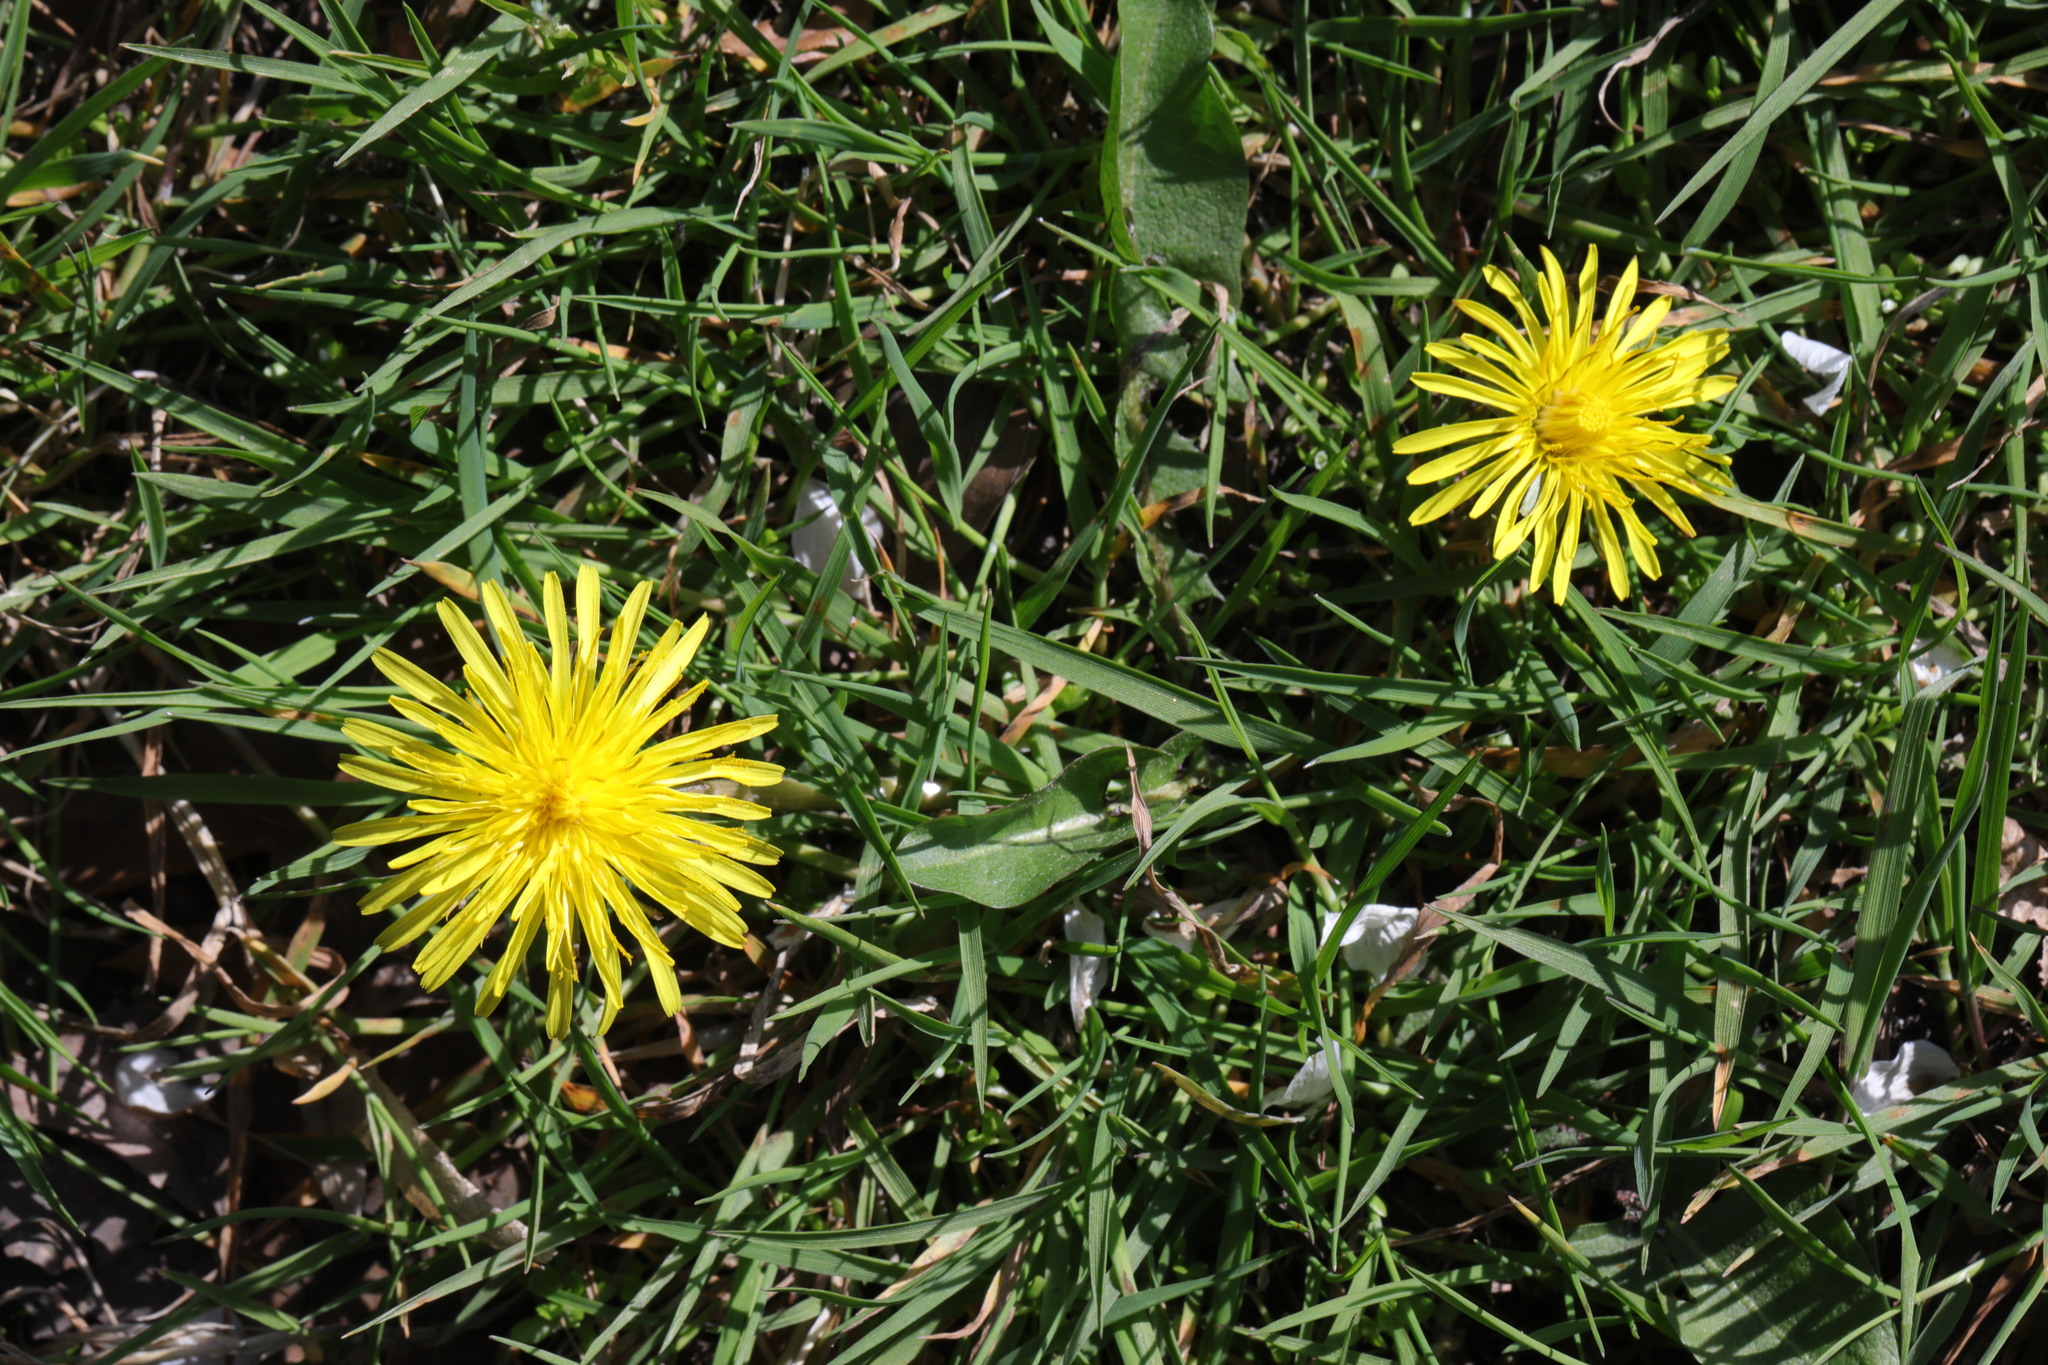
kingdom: Plantae
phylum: Tracheophyta
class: Magnoliopsida
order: Asterales
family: Asteraceae
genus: Taraxacum
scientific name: Taraxacum officinale
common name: Common dandelion
